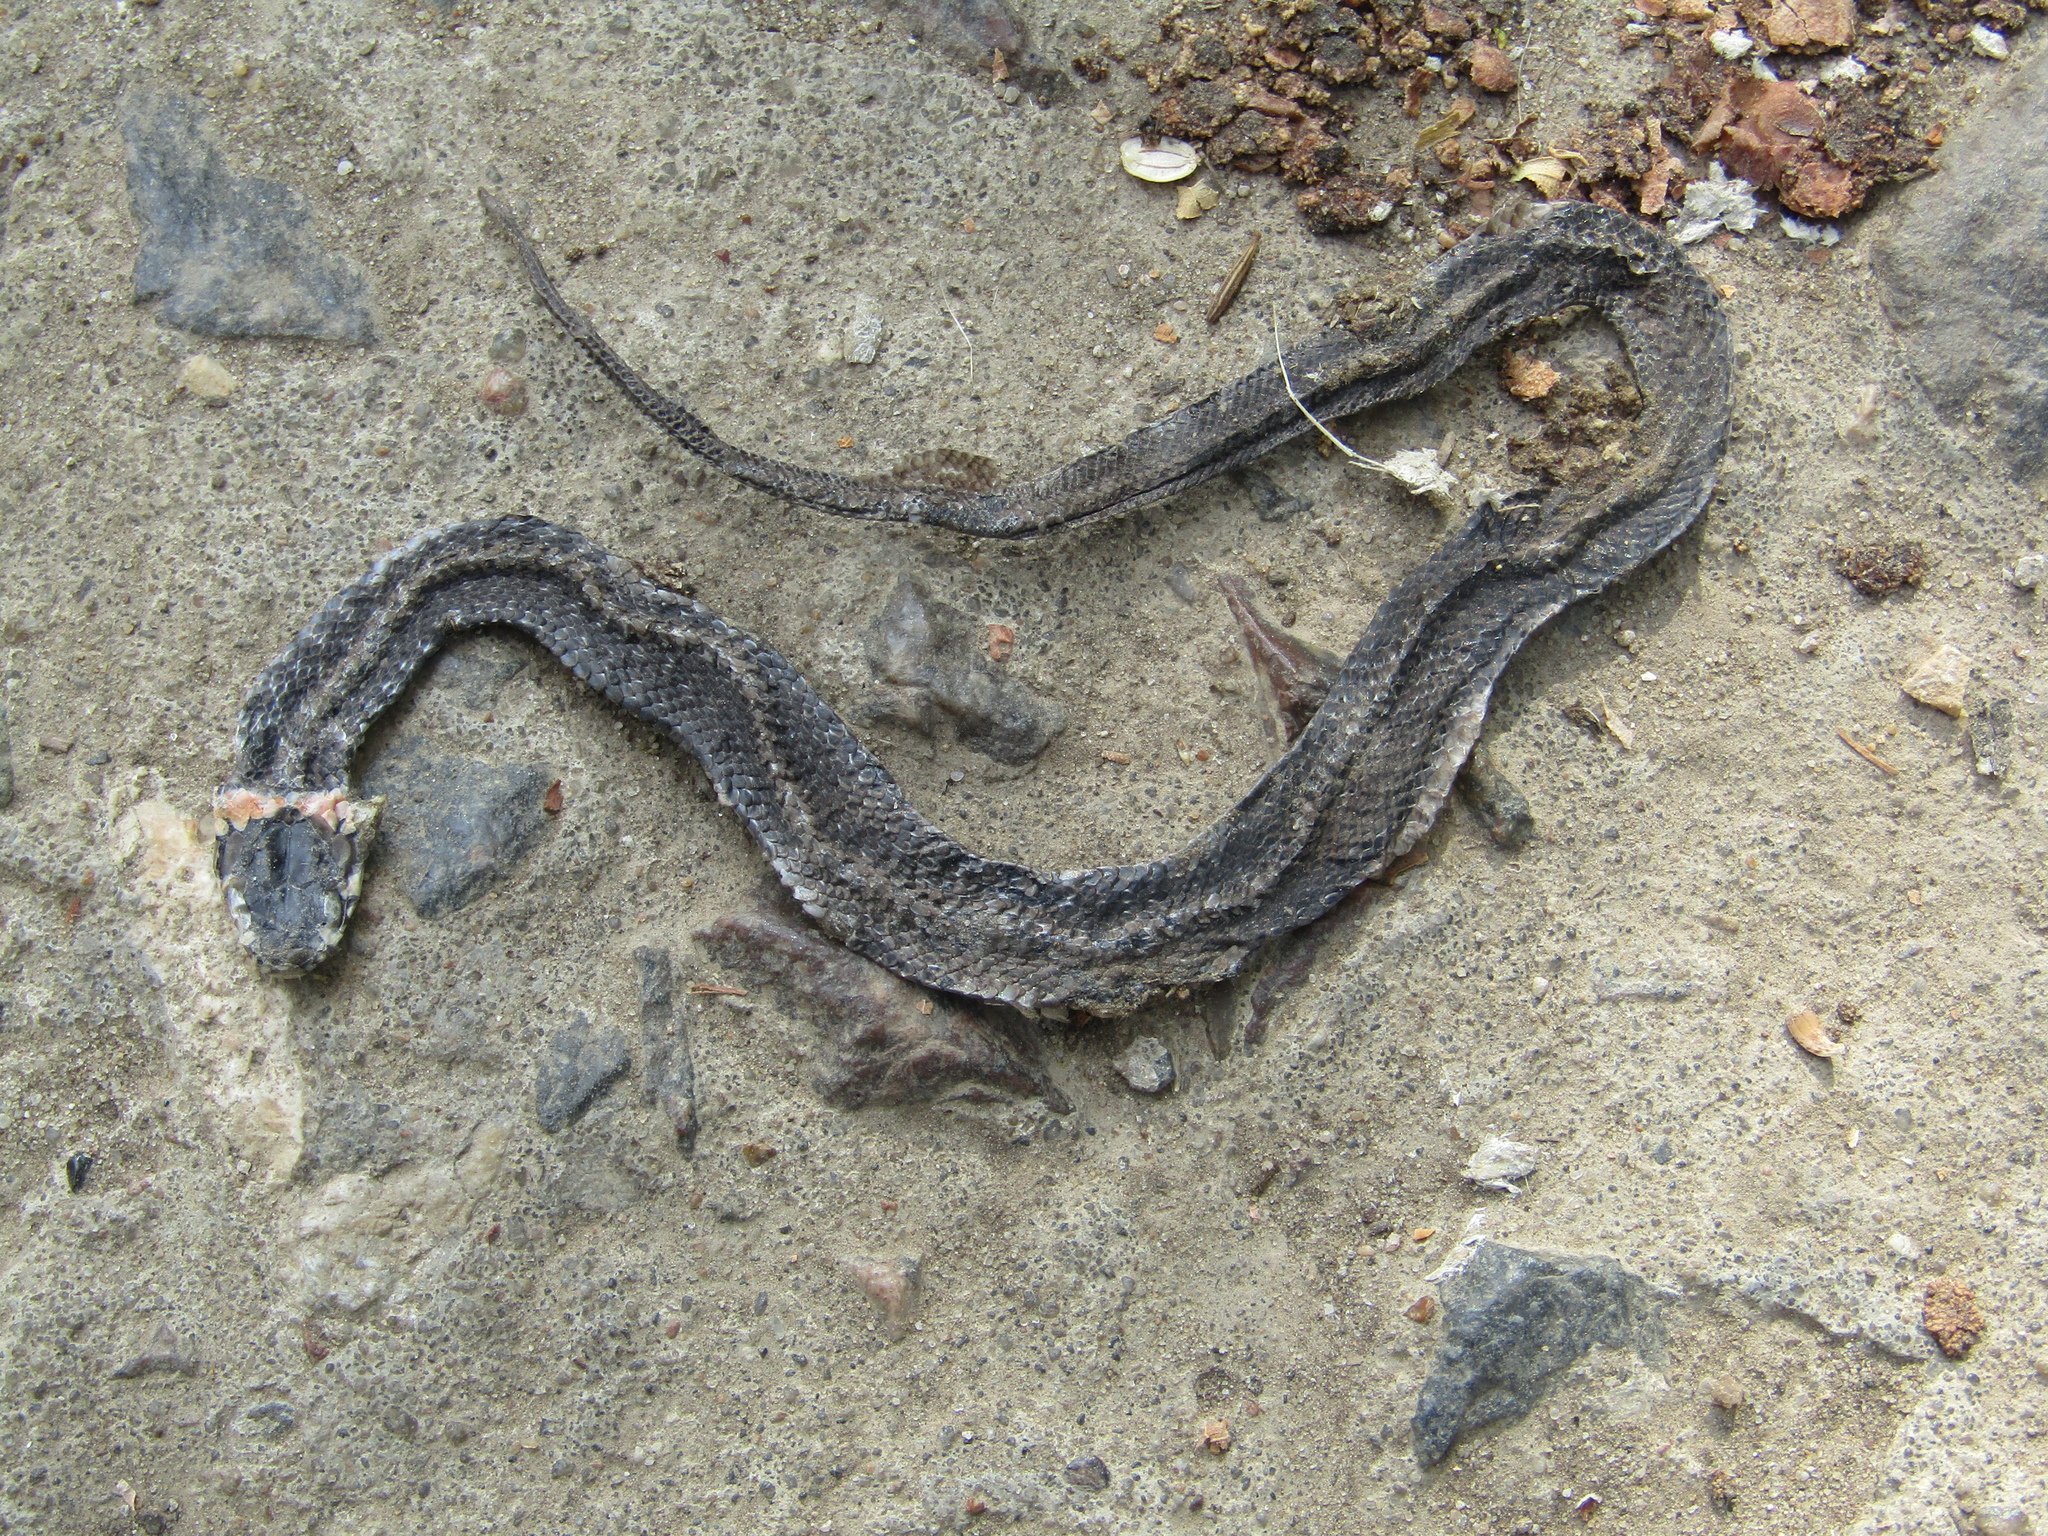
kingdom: Animalia
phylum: Chordata
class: Squamata
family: Colubridae
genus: Natrix
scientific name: Natrix natrix
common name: Grass snake
